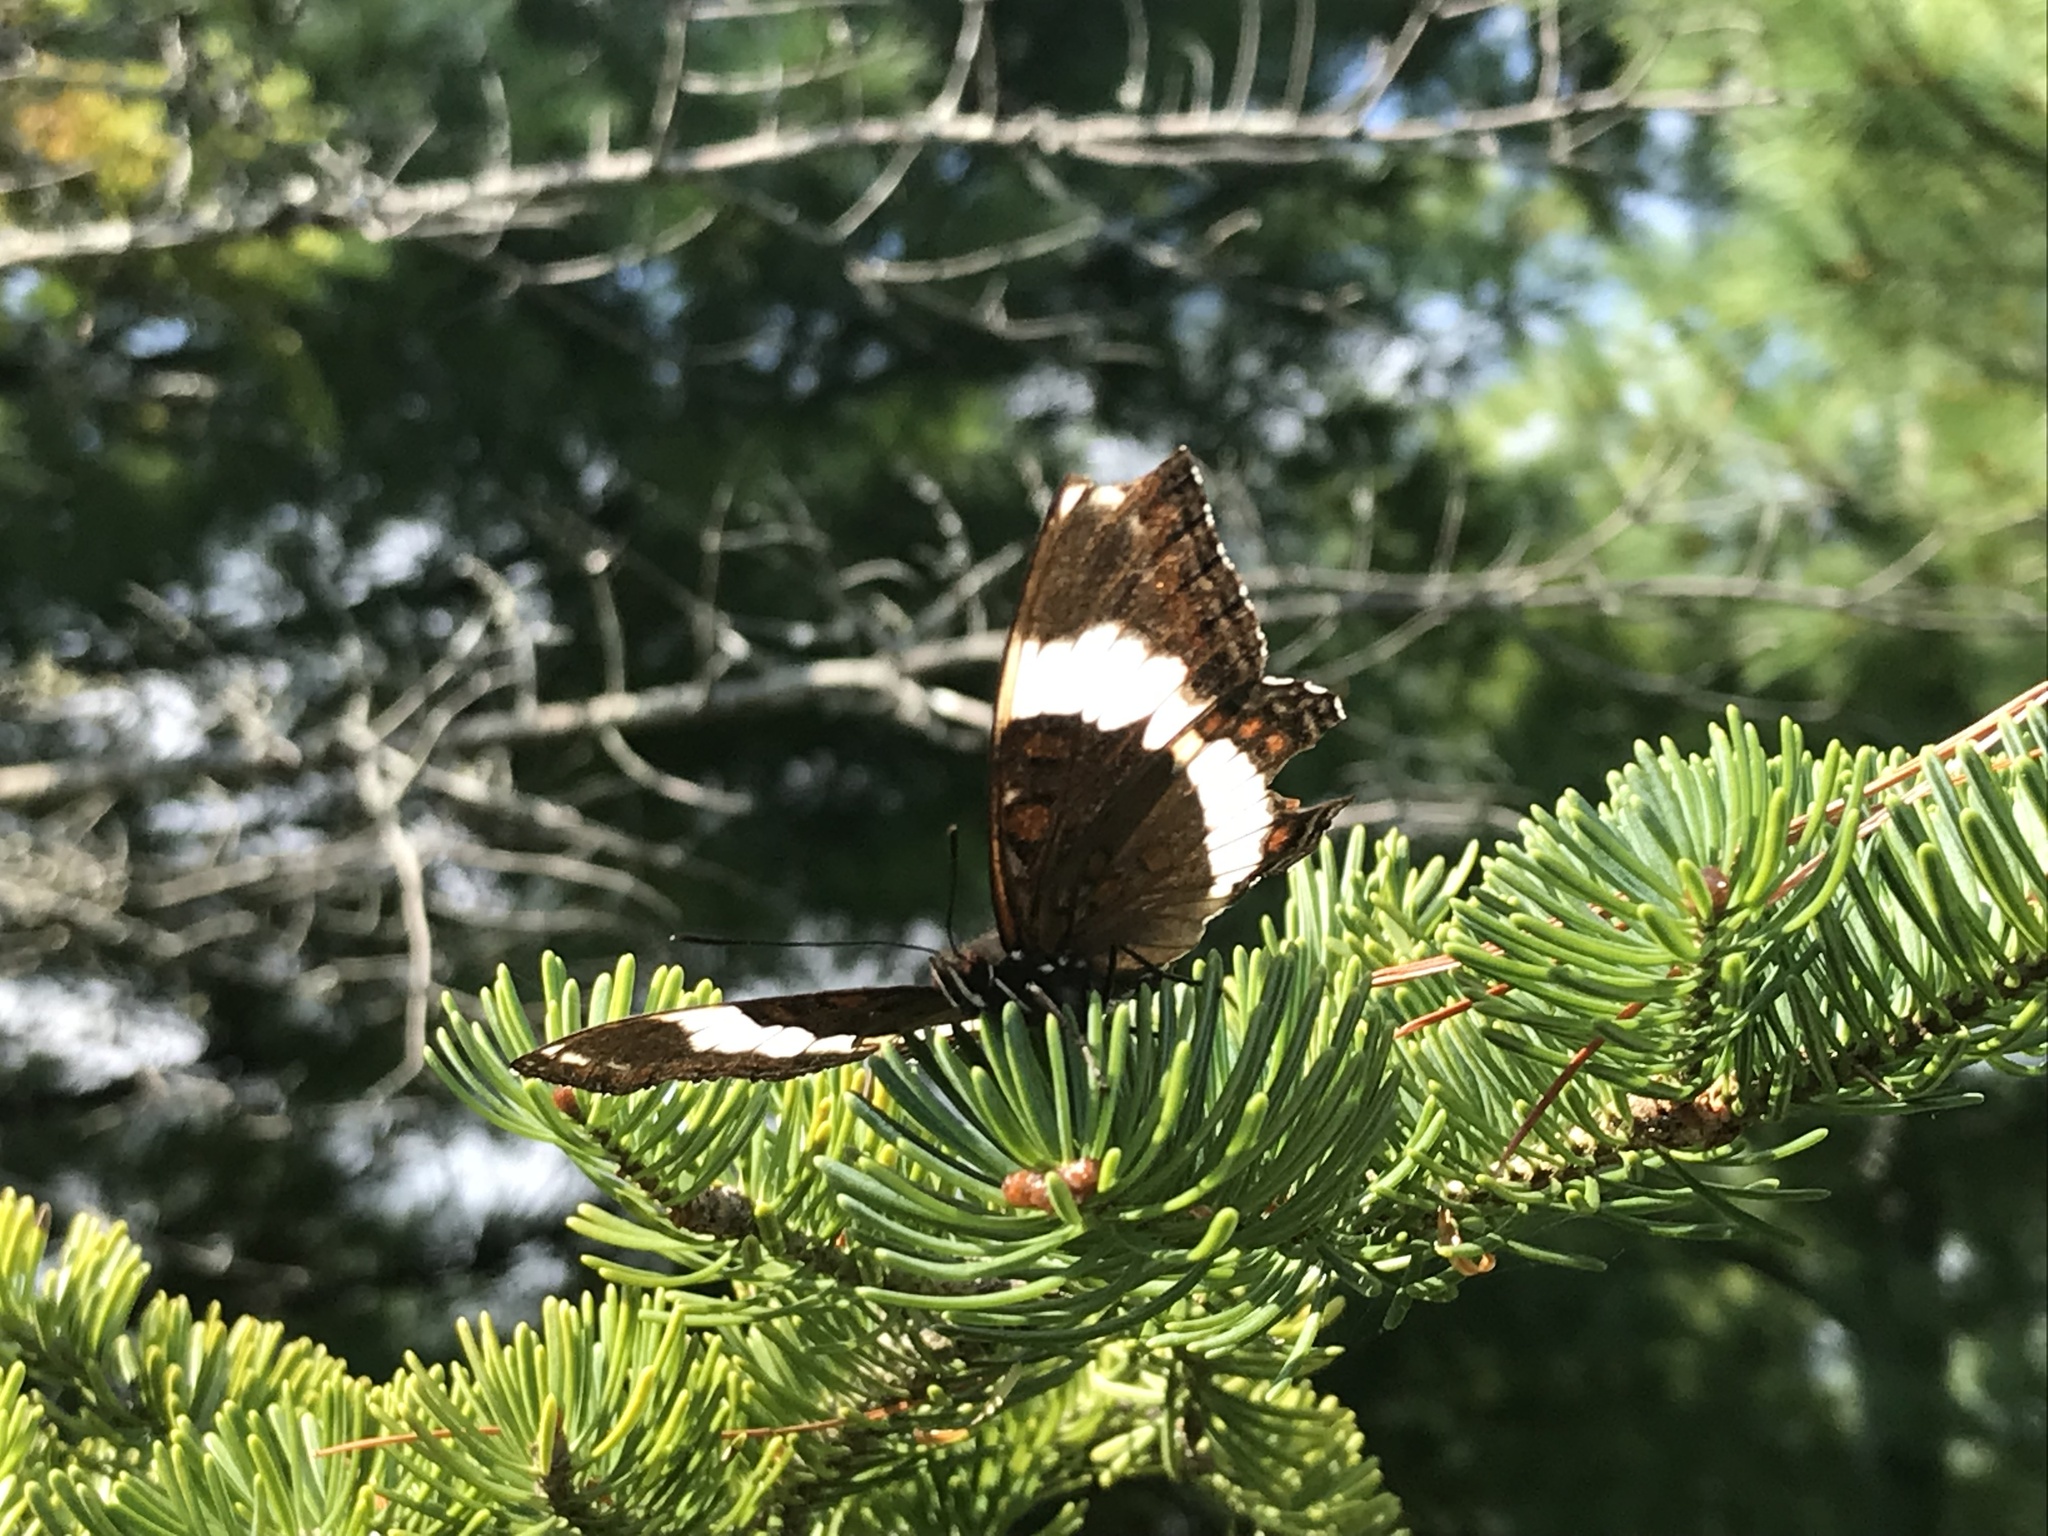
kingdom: Animalia
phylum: Arthropoda
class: Insecta
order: Lepidoptera
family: Nymphalidae
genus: Limenitis
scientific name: Limenitis arthemis
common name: Red-spotted admiral
